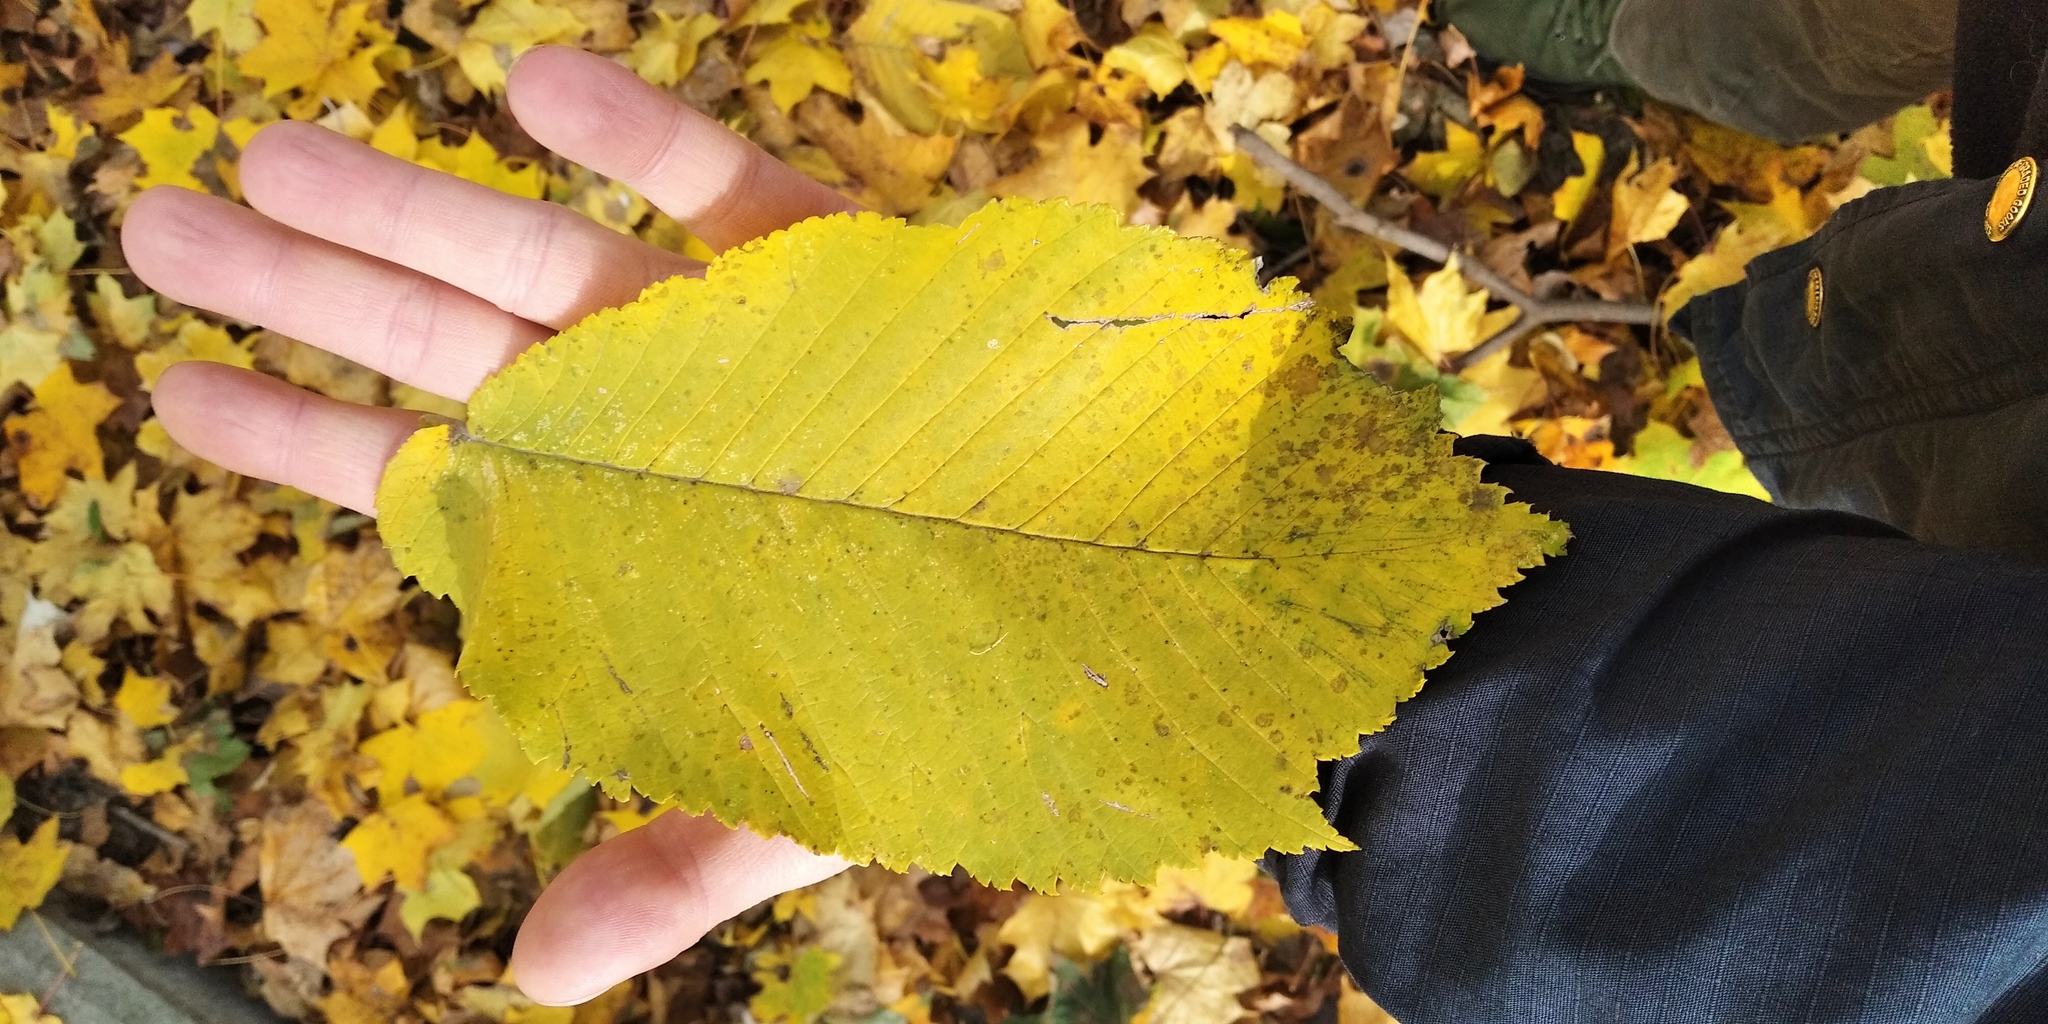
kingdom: Plantae
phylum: Tracheophyta
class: Magnoliopsida
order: Rosales
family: Ulmaceae
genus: Ulmus
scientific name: Ulmus glabra
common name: Wych elm
